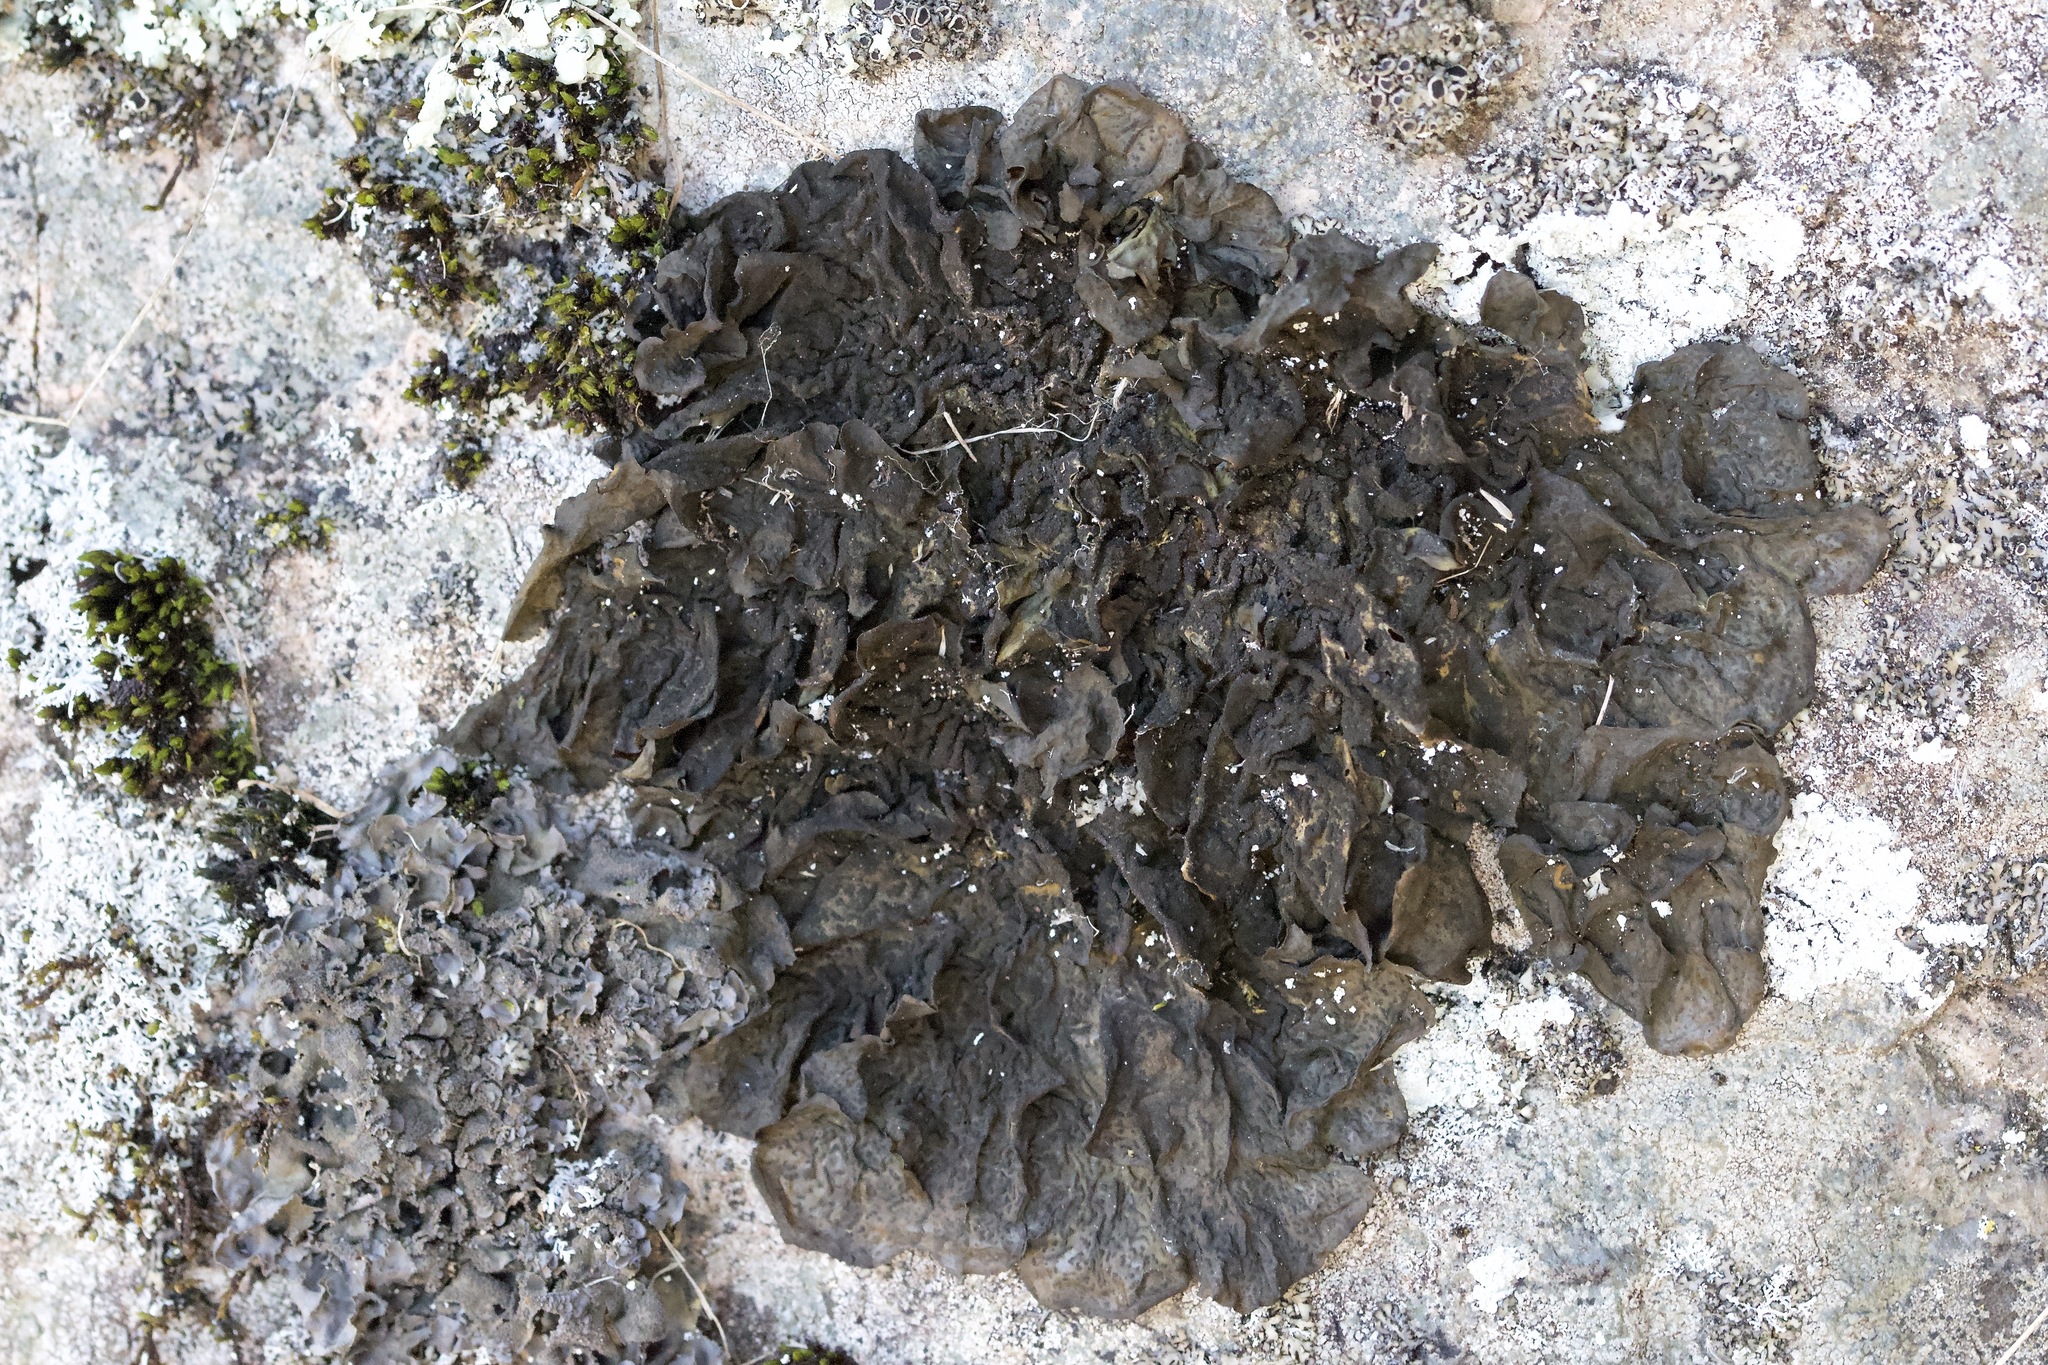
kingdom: Fungi
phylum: Ascomycota
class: Lecanoromycetes
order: Peltigerales
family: Collemataceae
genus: Collema
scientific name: Collema furfuraceum
